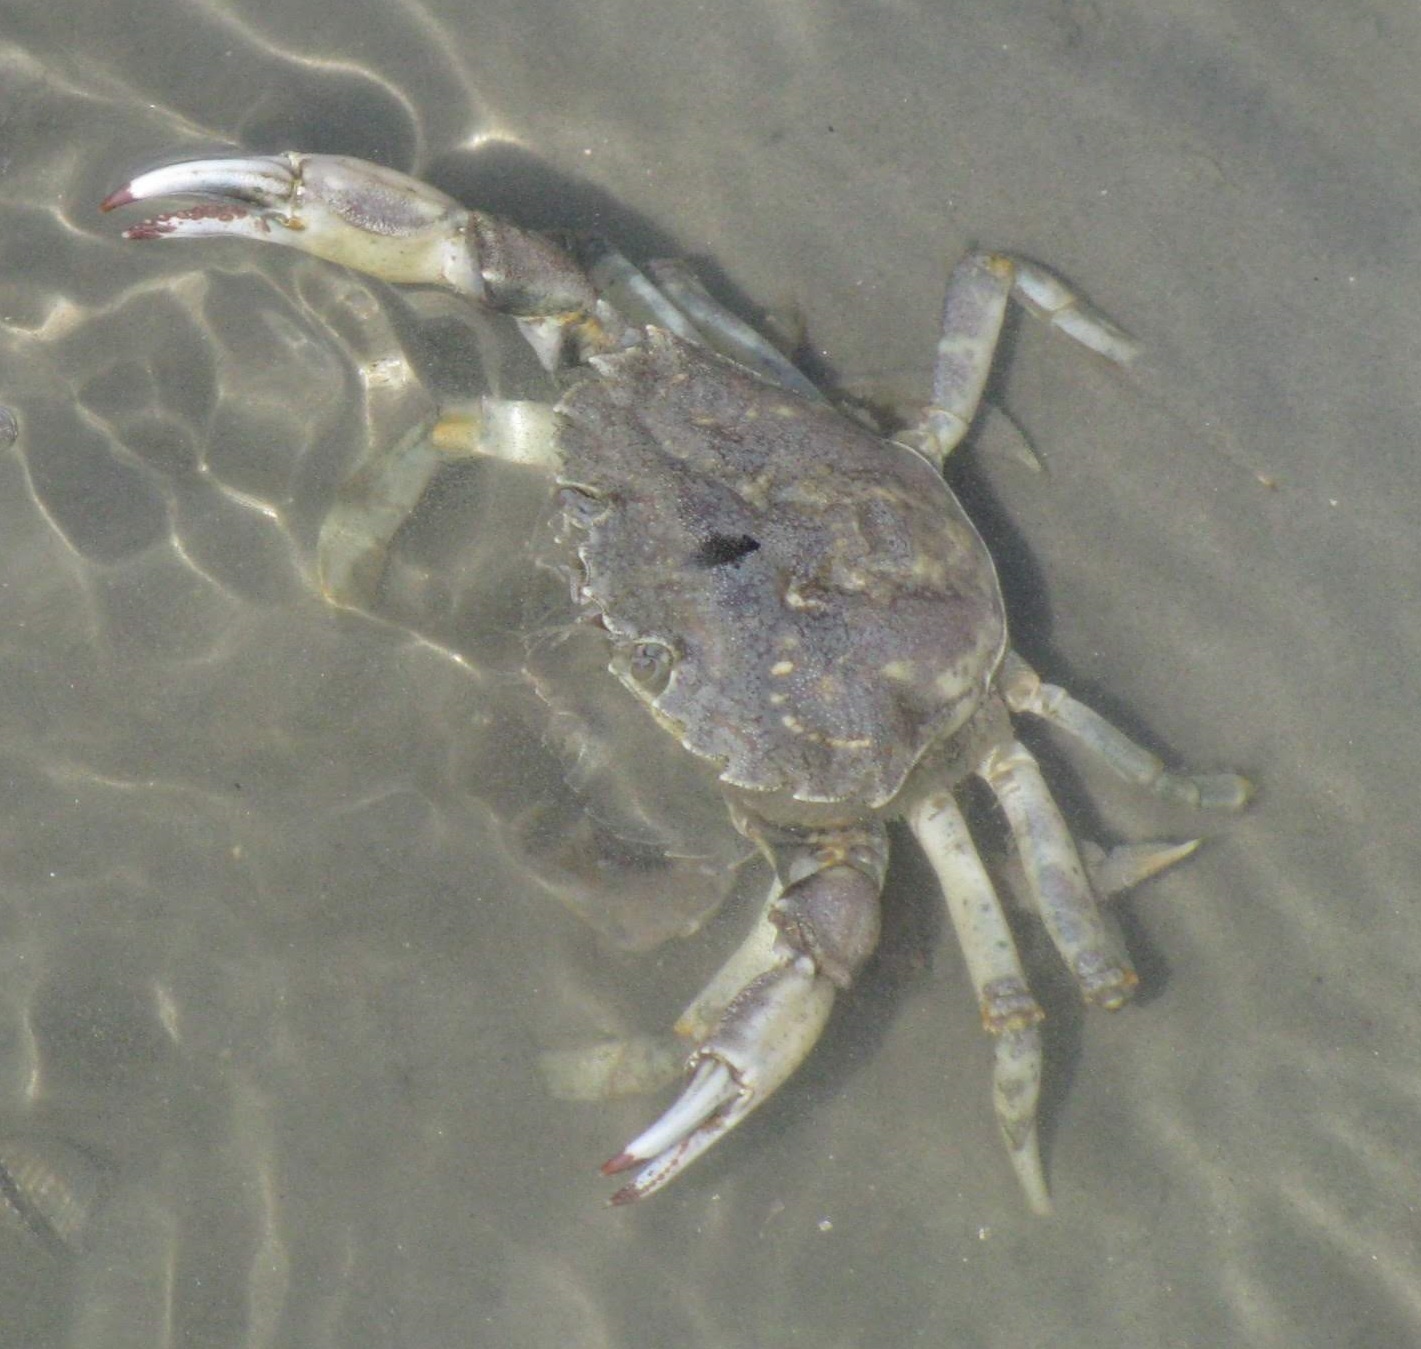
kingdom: Animalia
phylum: Arthropoda
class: Malacostraca
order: Decapoda
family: Carcinidae
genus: Carcinus
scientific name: Carcinus maenas
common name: European green crab
